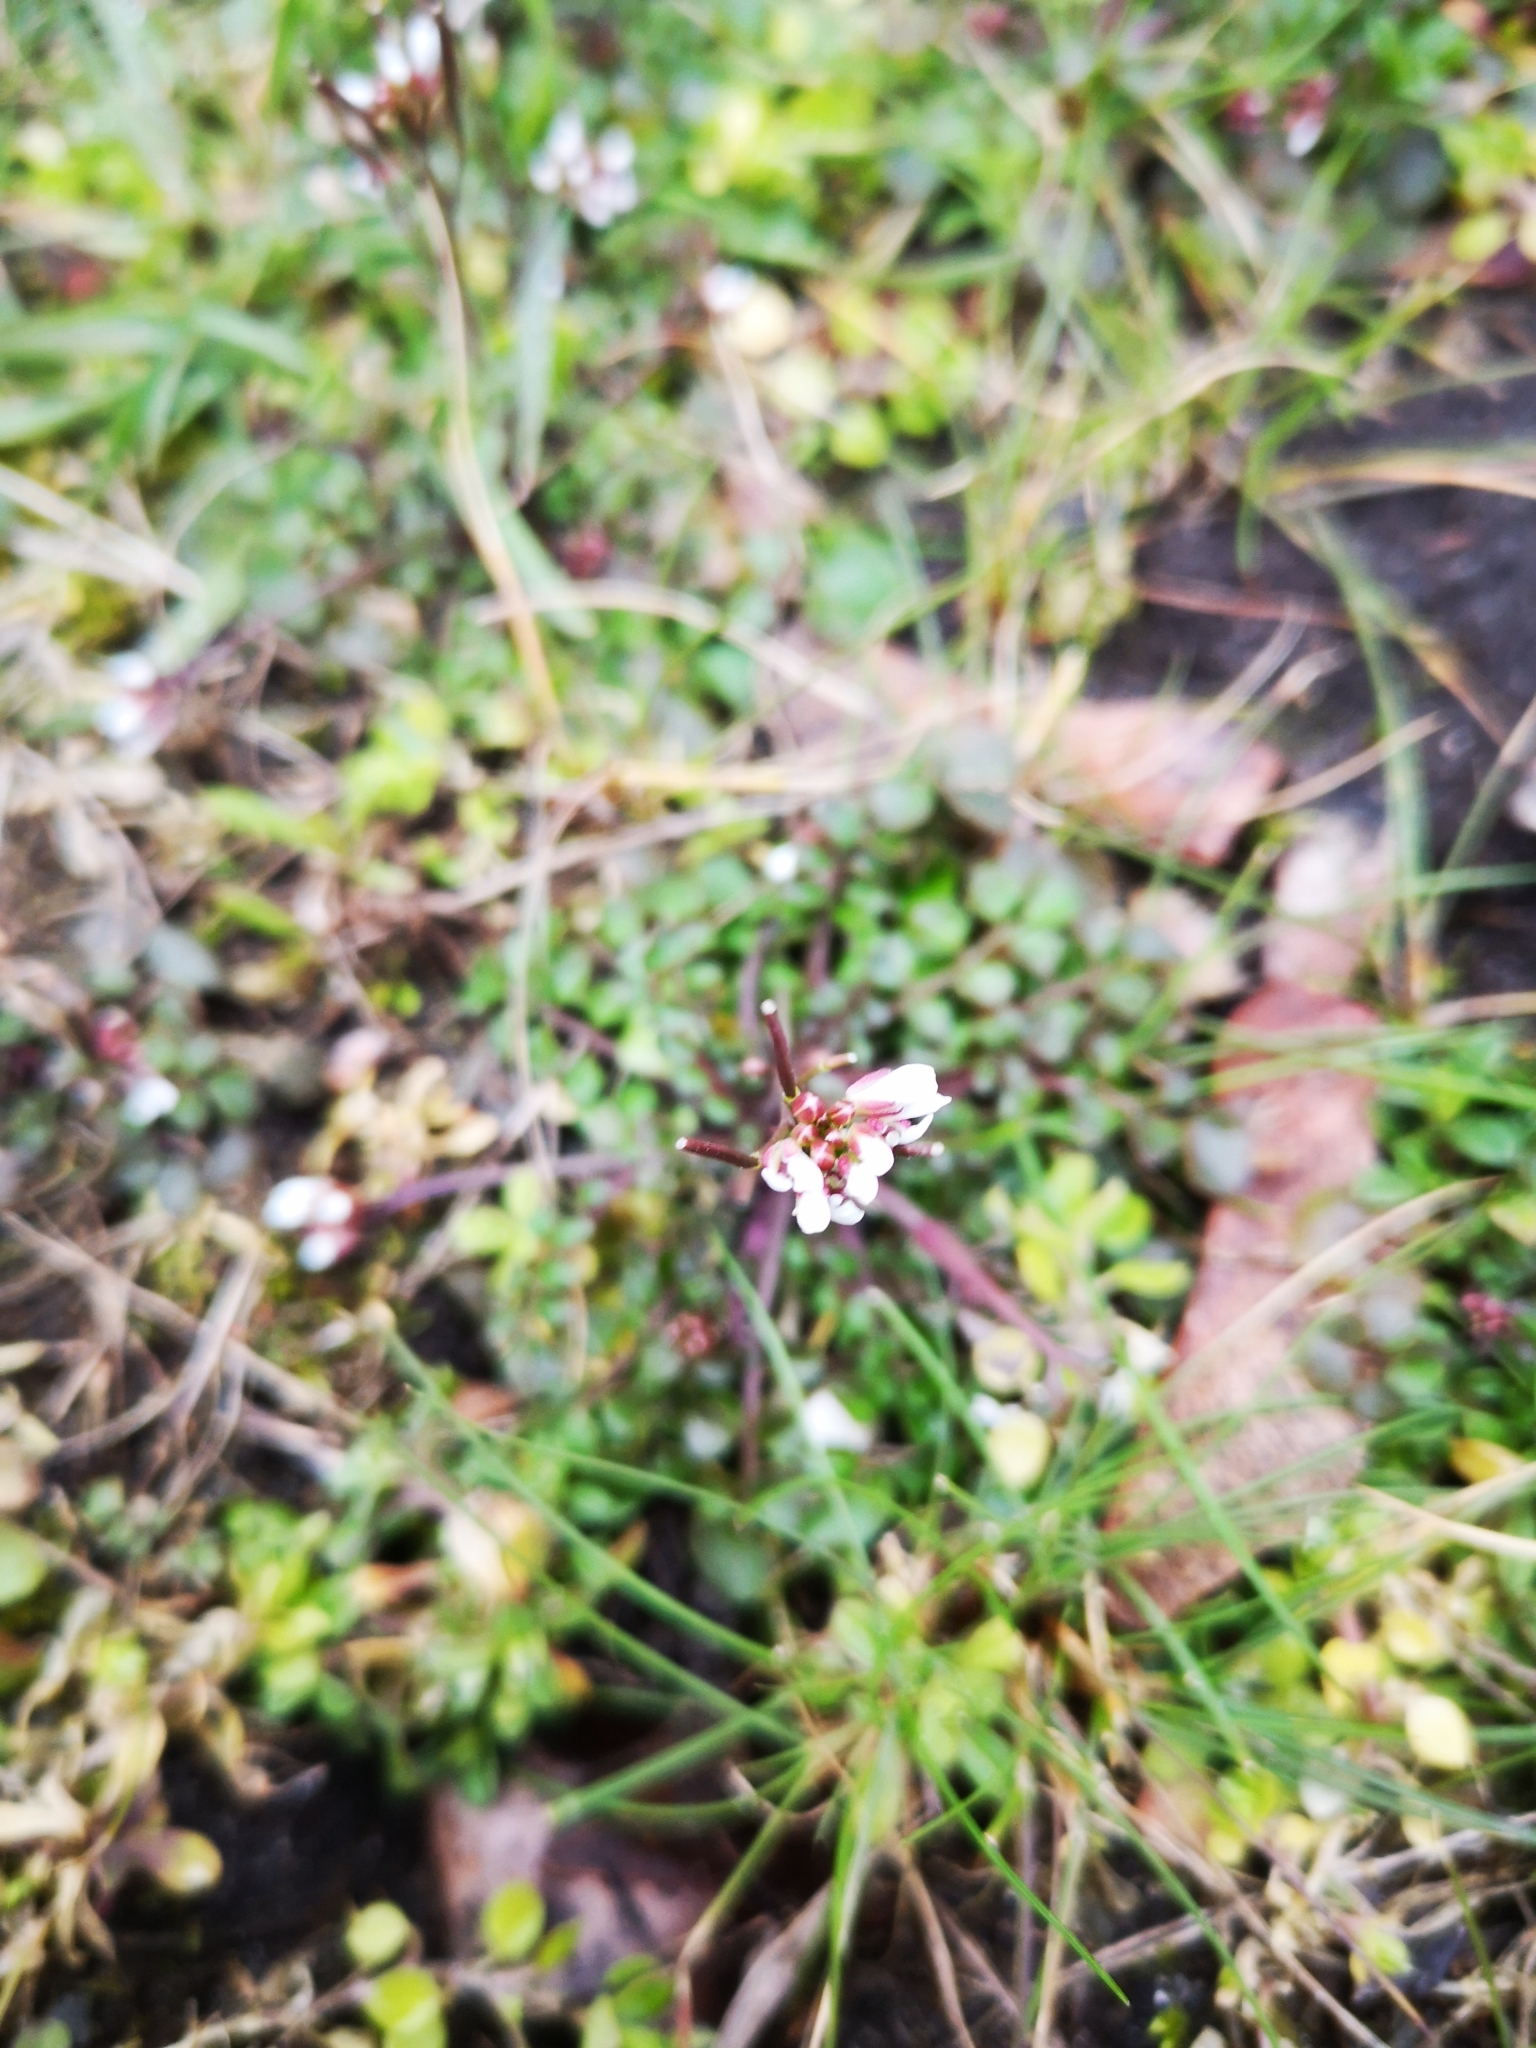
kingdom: Plantae
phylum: Tracheophyta
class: Magnoliopsida
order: Brassicales
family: Brassicaceae
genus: Cardamine
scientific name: Cardamine hirsuta
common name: Hairy bittercress
